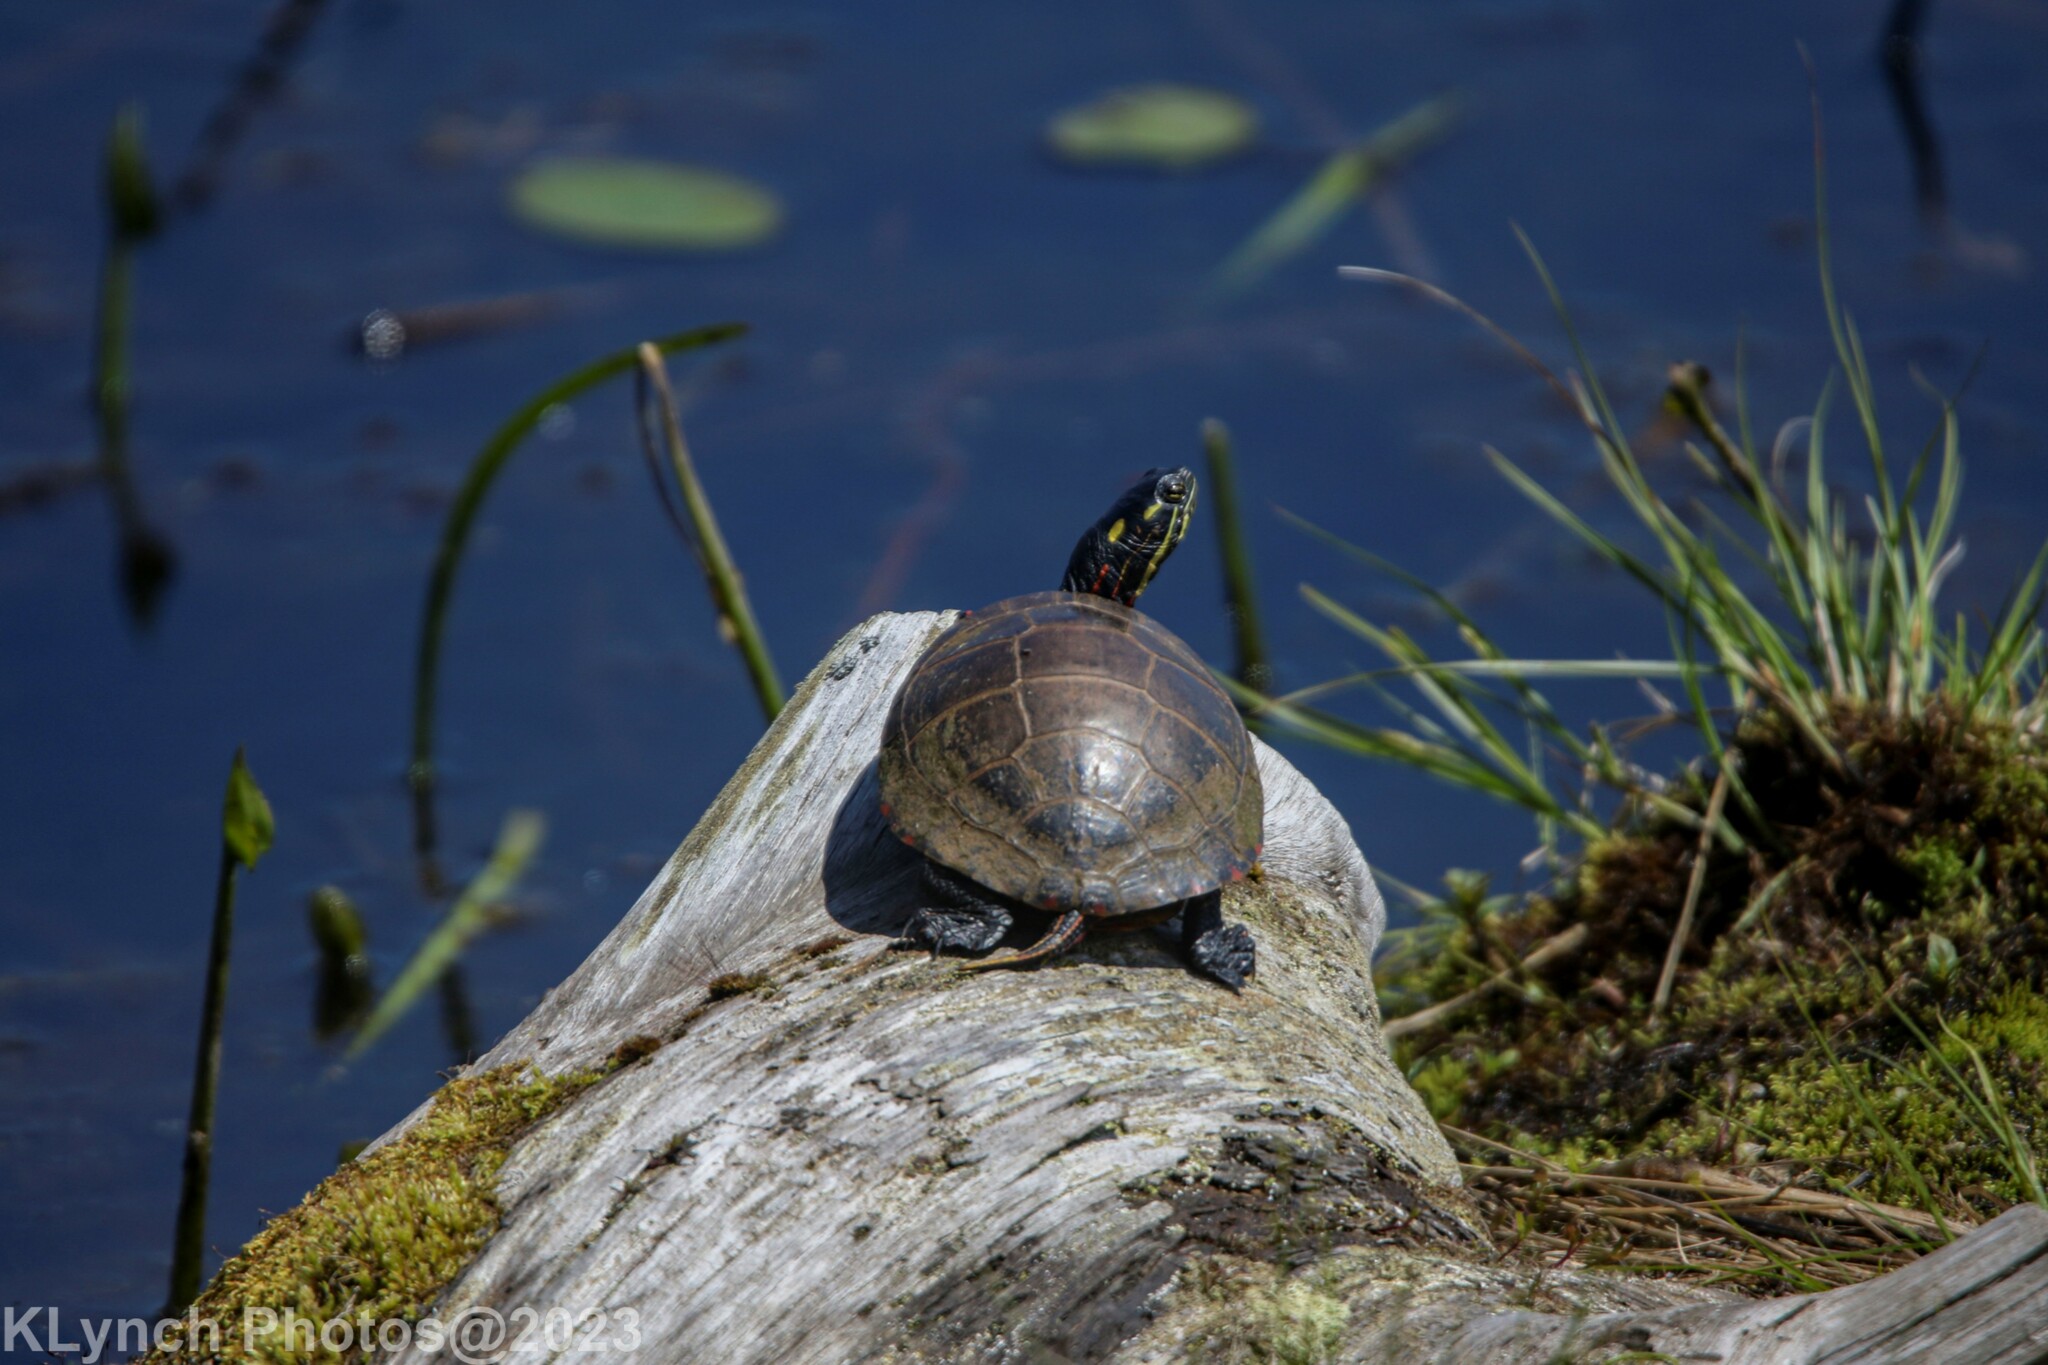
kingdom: Animalia
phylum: Chordata
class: Testudines
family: Emydidae
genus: Chrysemys
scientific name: Chrysemys picta
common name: Painted turtle
